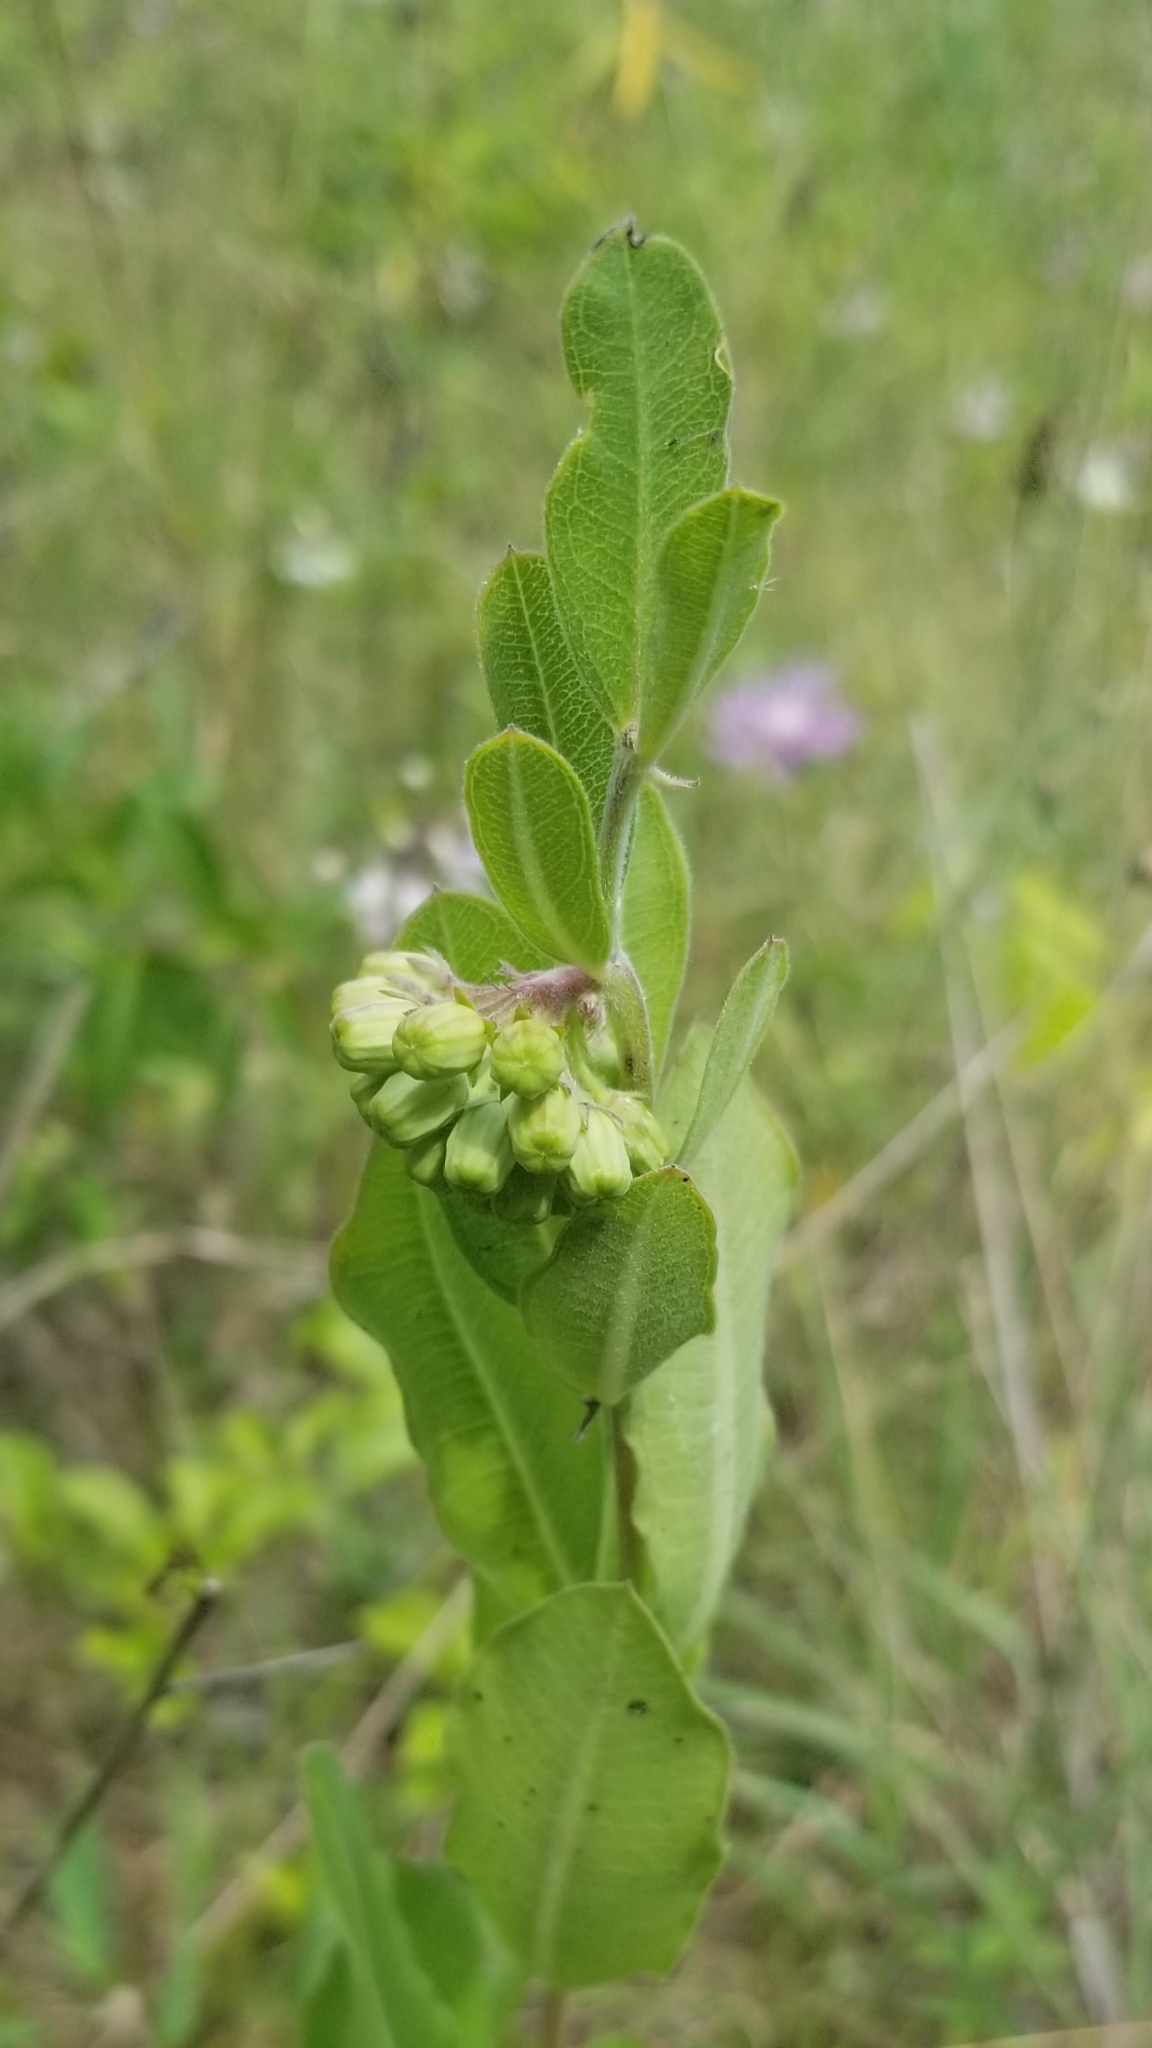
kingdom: Plantae
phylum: Tracheophyta
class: Magnoliopsida
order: Gentianales
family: Apocynaceae
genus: Asclepias
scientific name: Asclepias viridiflora
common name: Green comet milkweed
